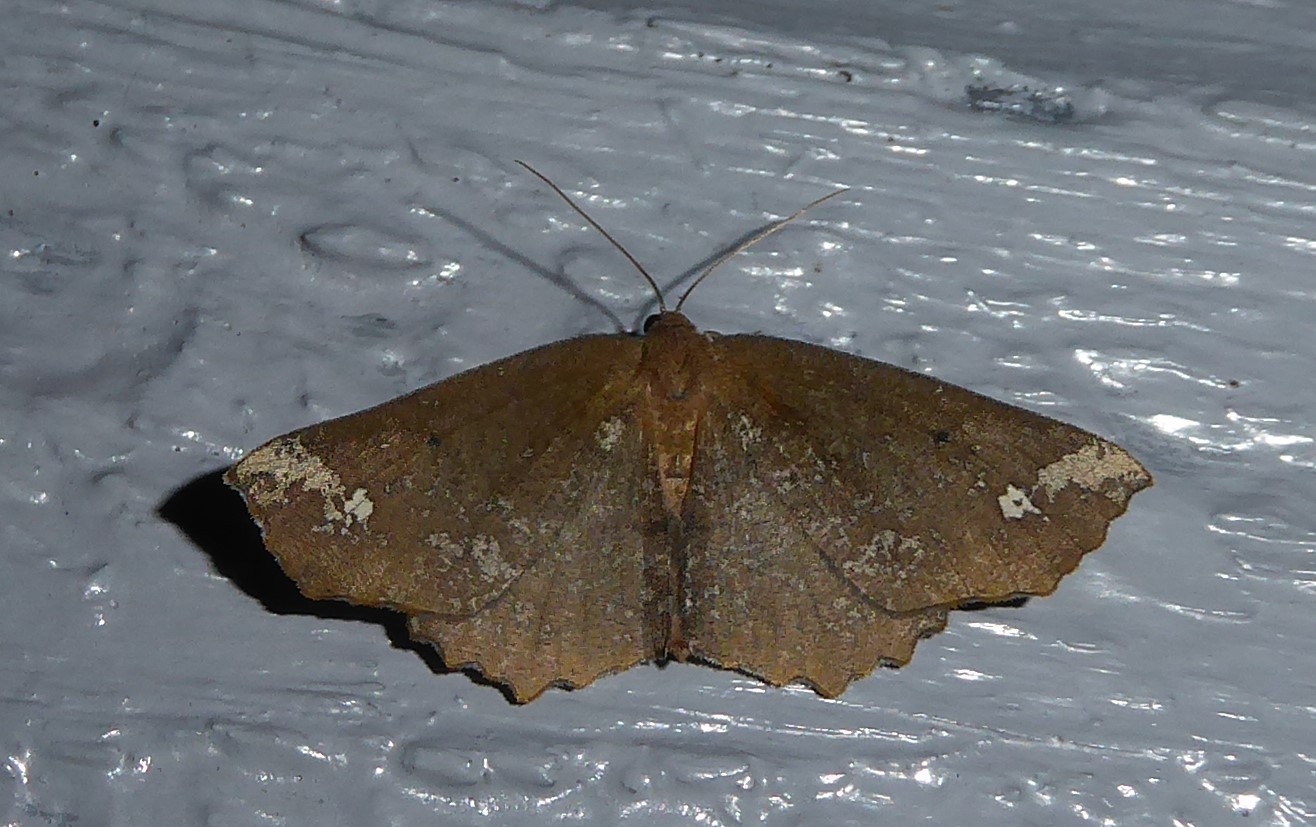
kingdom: Animalia
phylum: Arthropoda
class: Insecta
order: Lepidoptera
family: Geometridae
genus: Xyridacma
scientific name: Xyridacma ustaria
